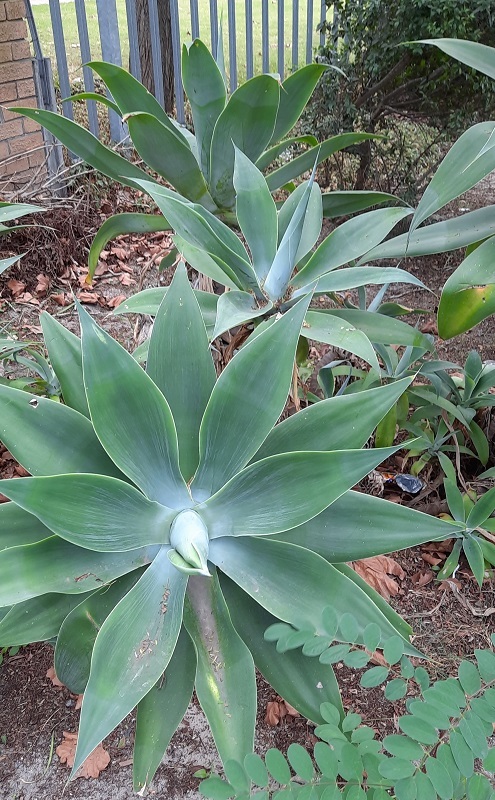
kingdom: Plantae
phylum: Tracheophyta
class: Liliopsida
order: Asparagales
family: Asparagaceae
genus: Agave
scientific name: Agave attenuata
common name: Fox tail agave
